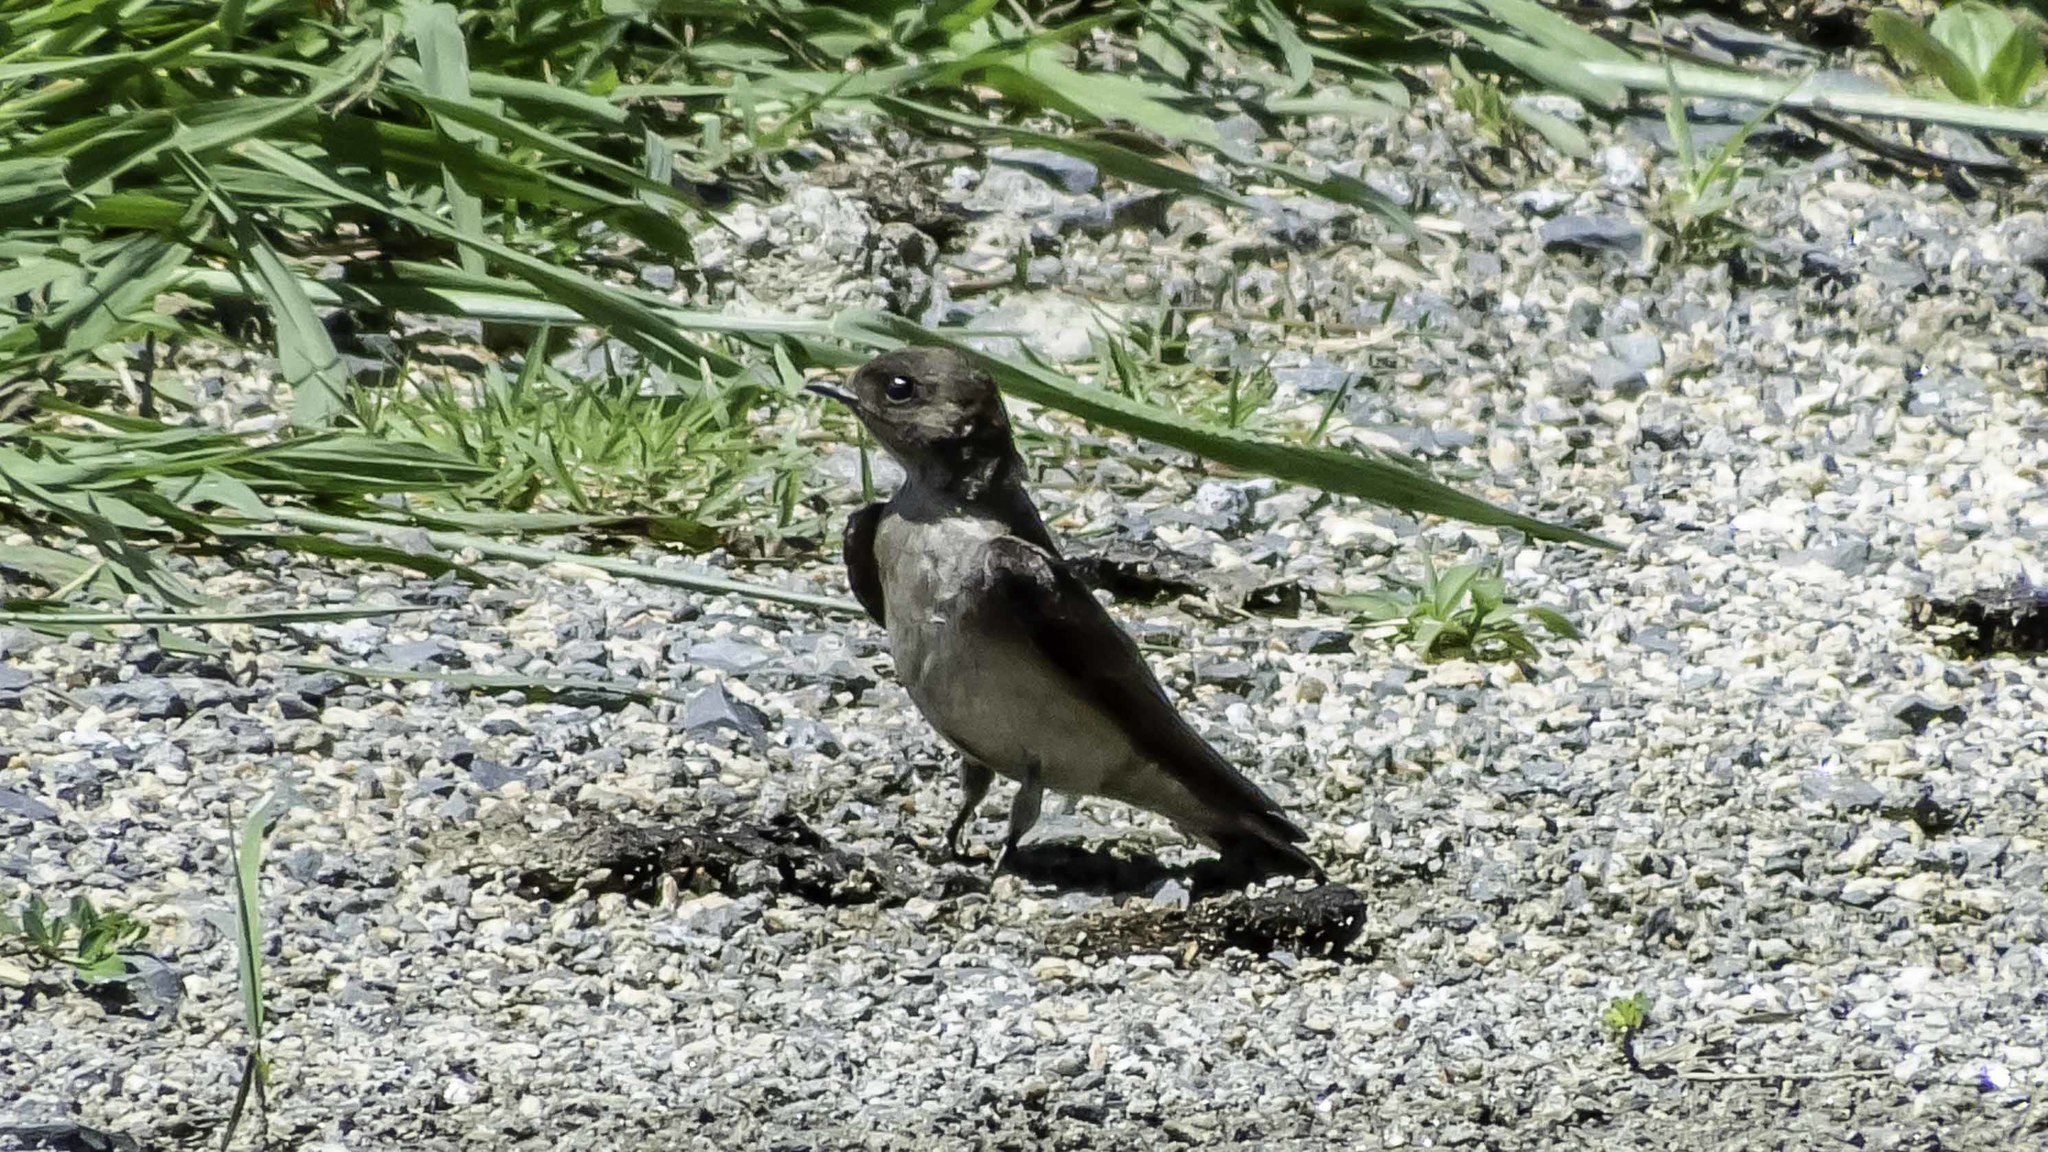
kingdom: Animalia
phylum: Chordata
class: Aves
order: Passeriformes
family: Hirundinidae
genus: Stelgidopteryx
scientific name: Stelgidopteryx serripennis
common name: Northern rough-winged swallow
